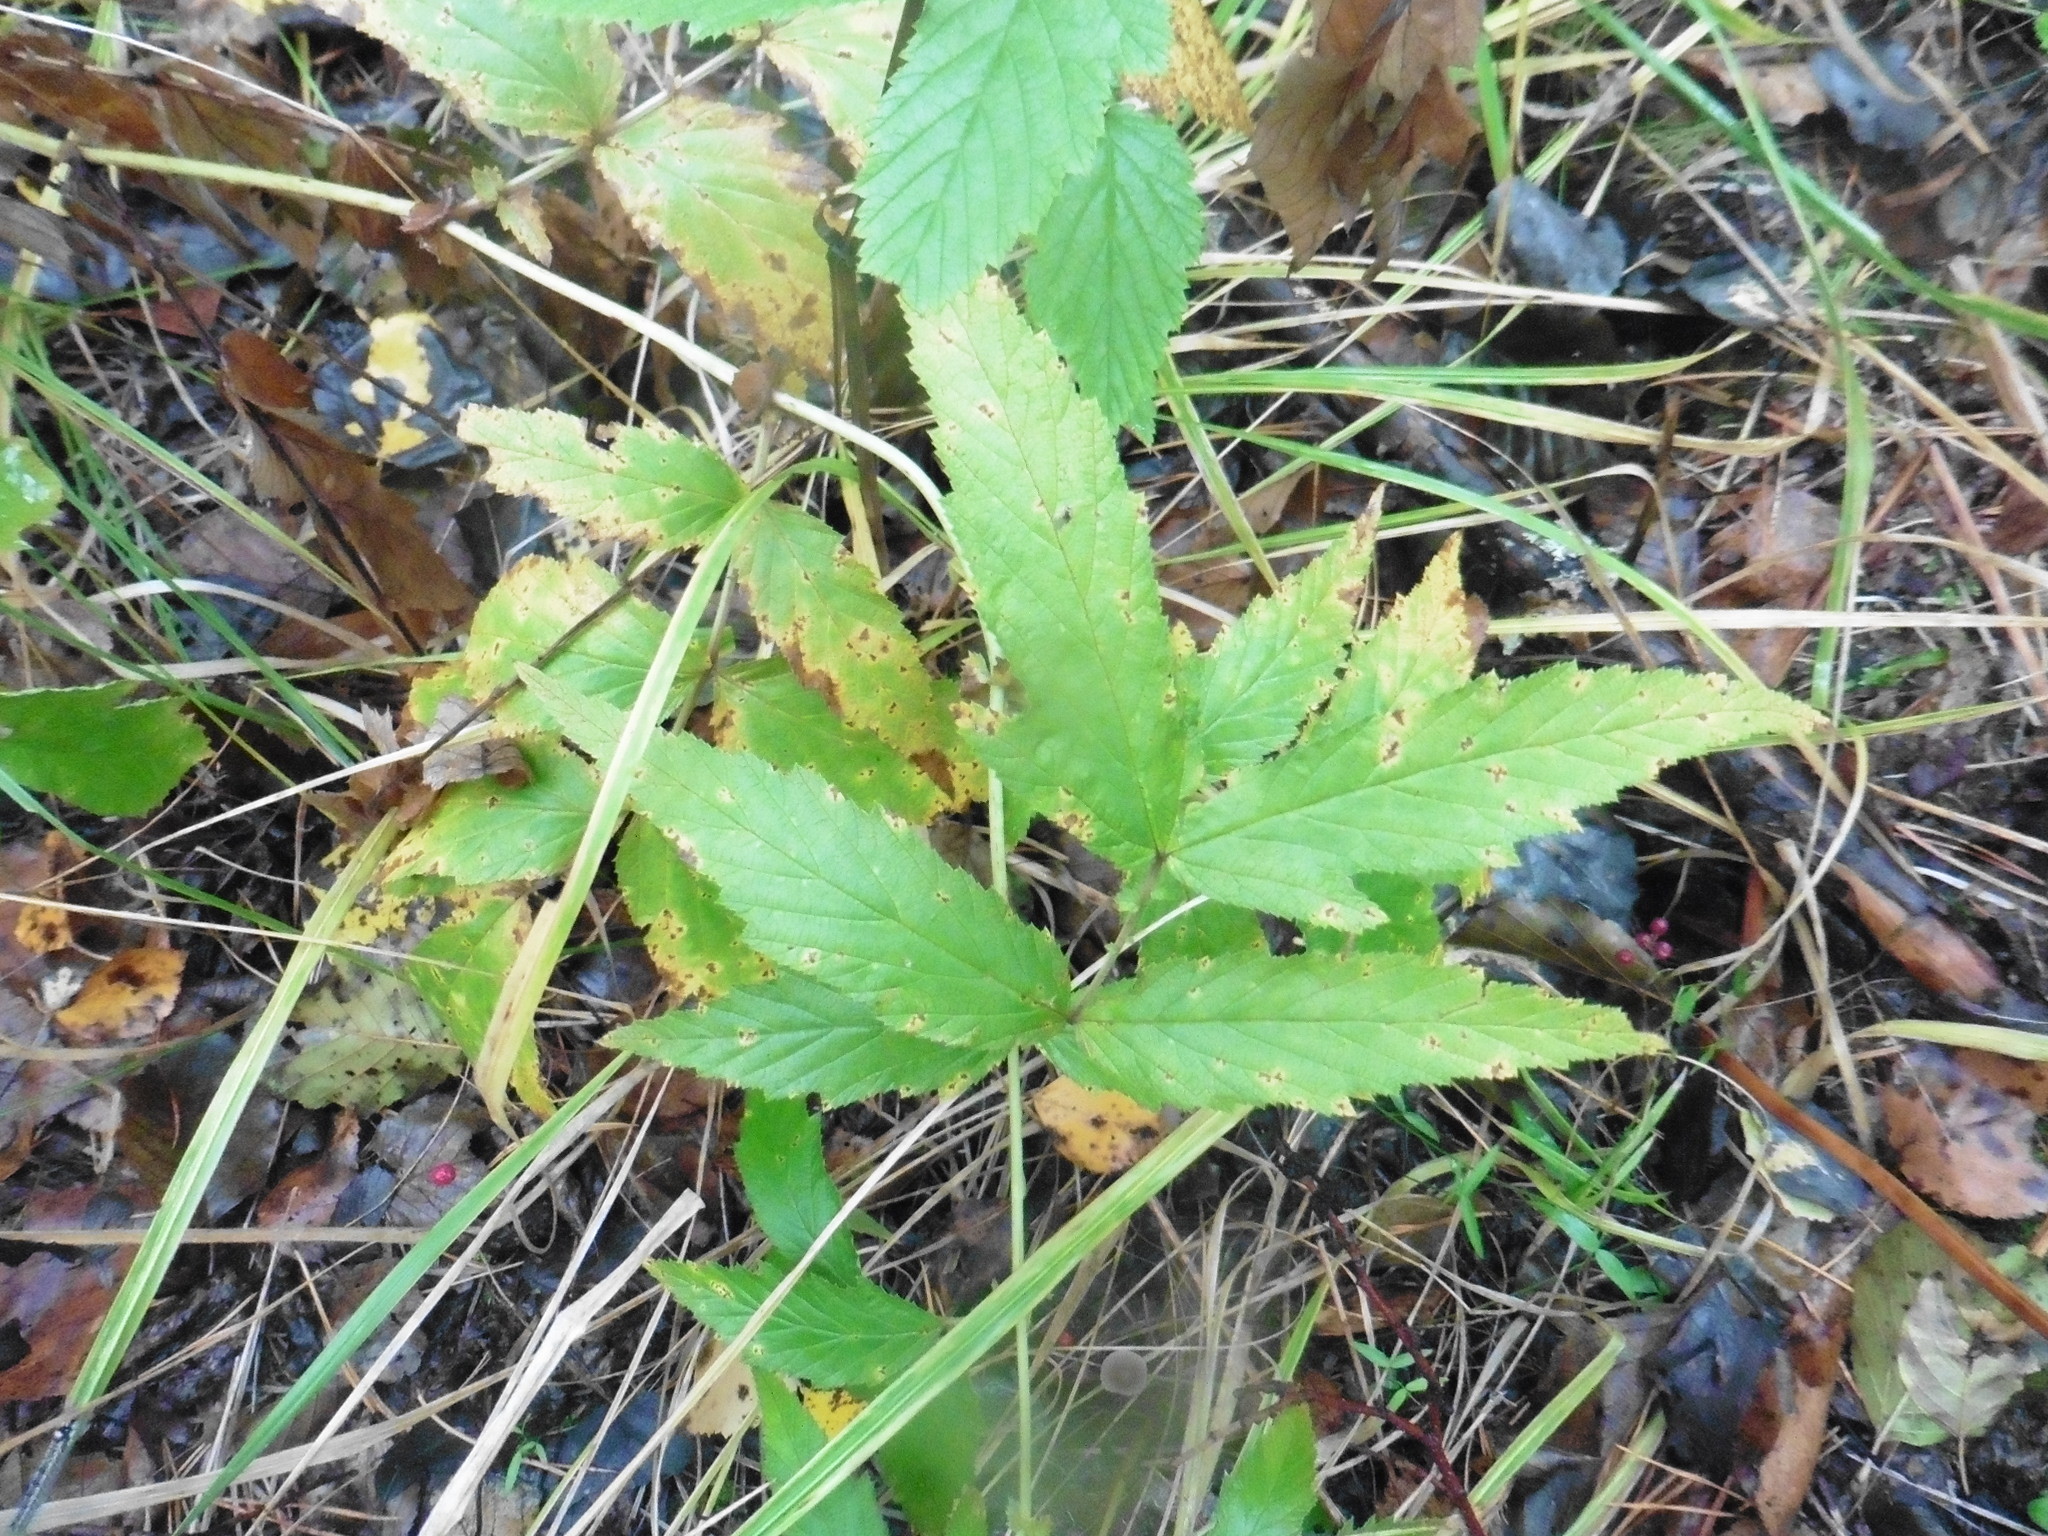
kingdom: Plantae
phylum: Tracheophyta
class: Magnoliopsida
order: Rosales
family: Rosaceae
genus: Filipendula
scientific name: Filipendula ulmaria
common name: Meadowsweet
